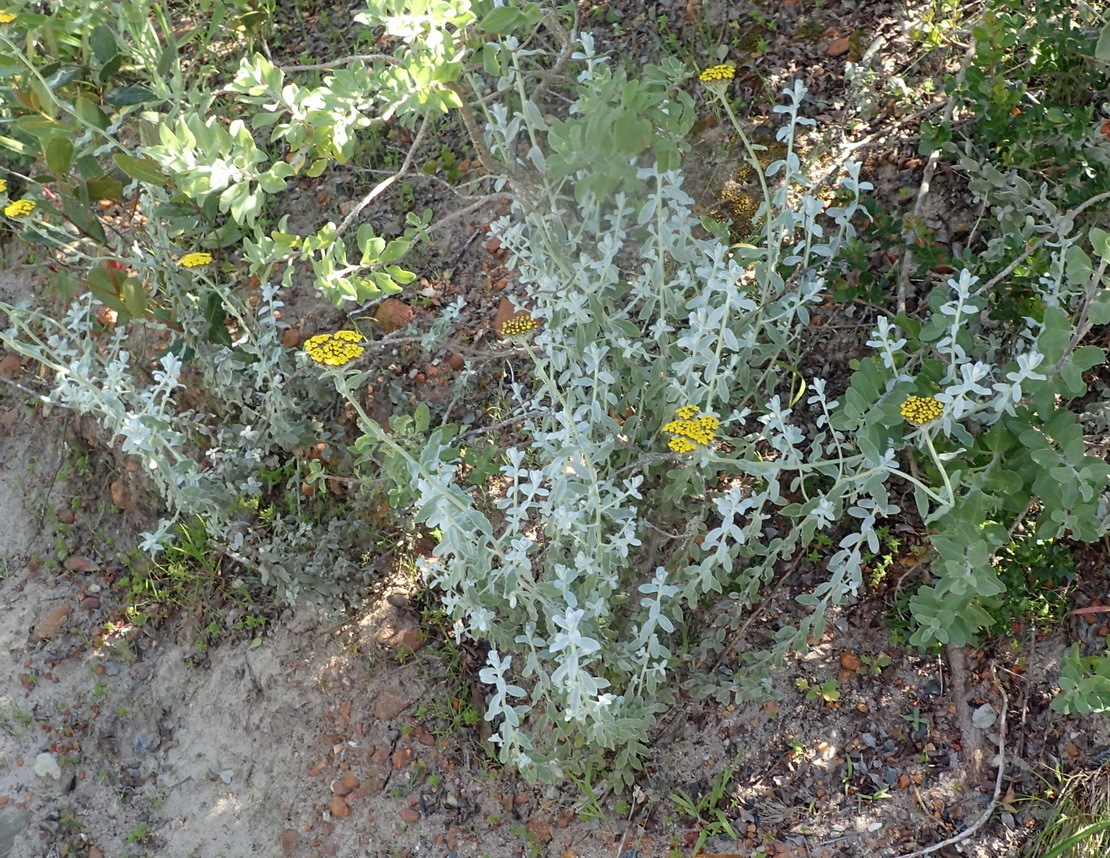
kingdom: Plantae
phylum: Tracheophyta
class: Magnoliopsida
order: Asterales
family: Asteraceae
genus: Helichrysum
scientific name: Helichrysum dasyanthum
